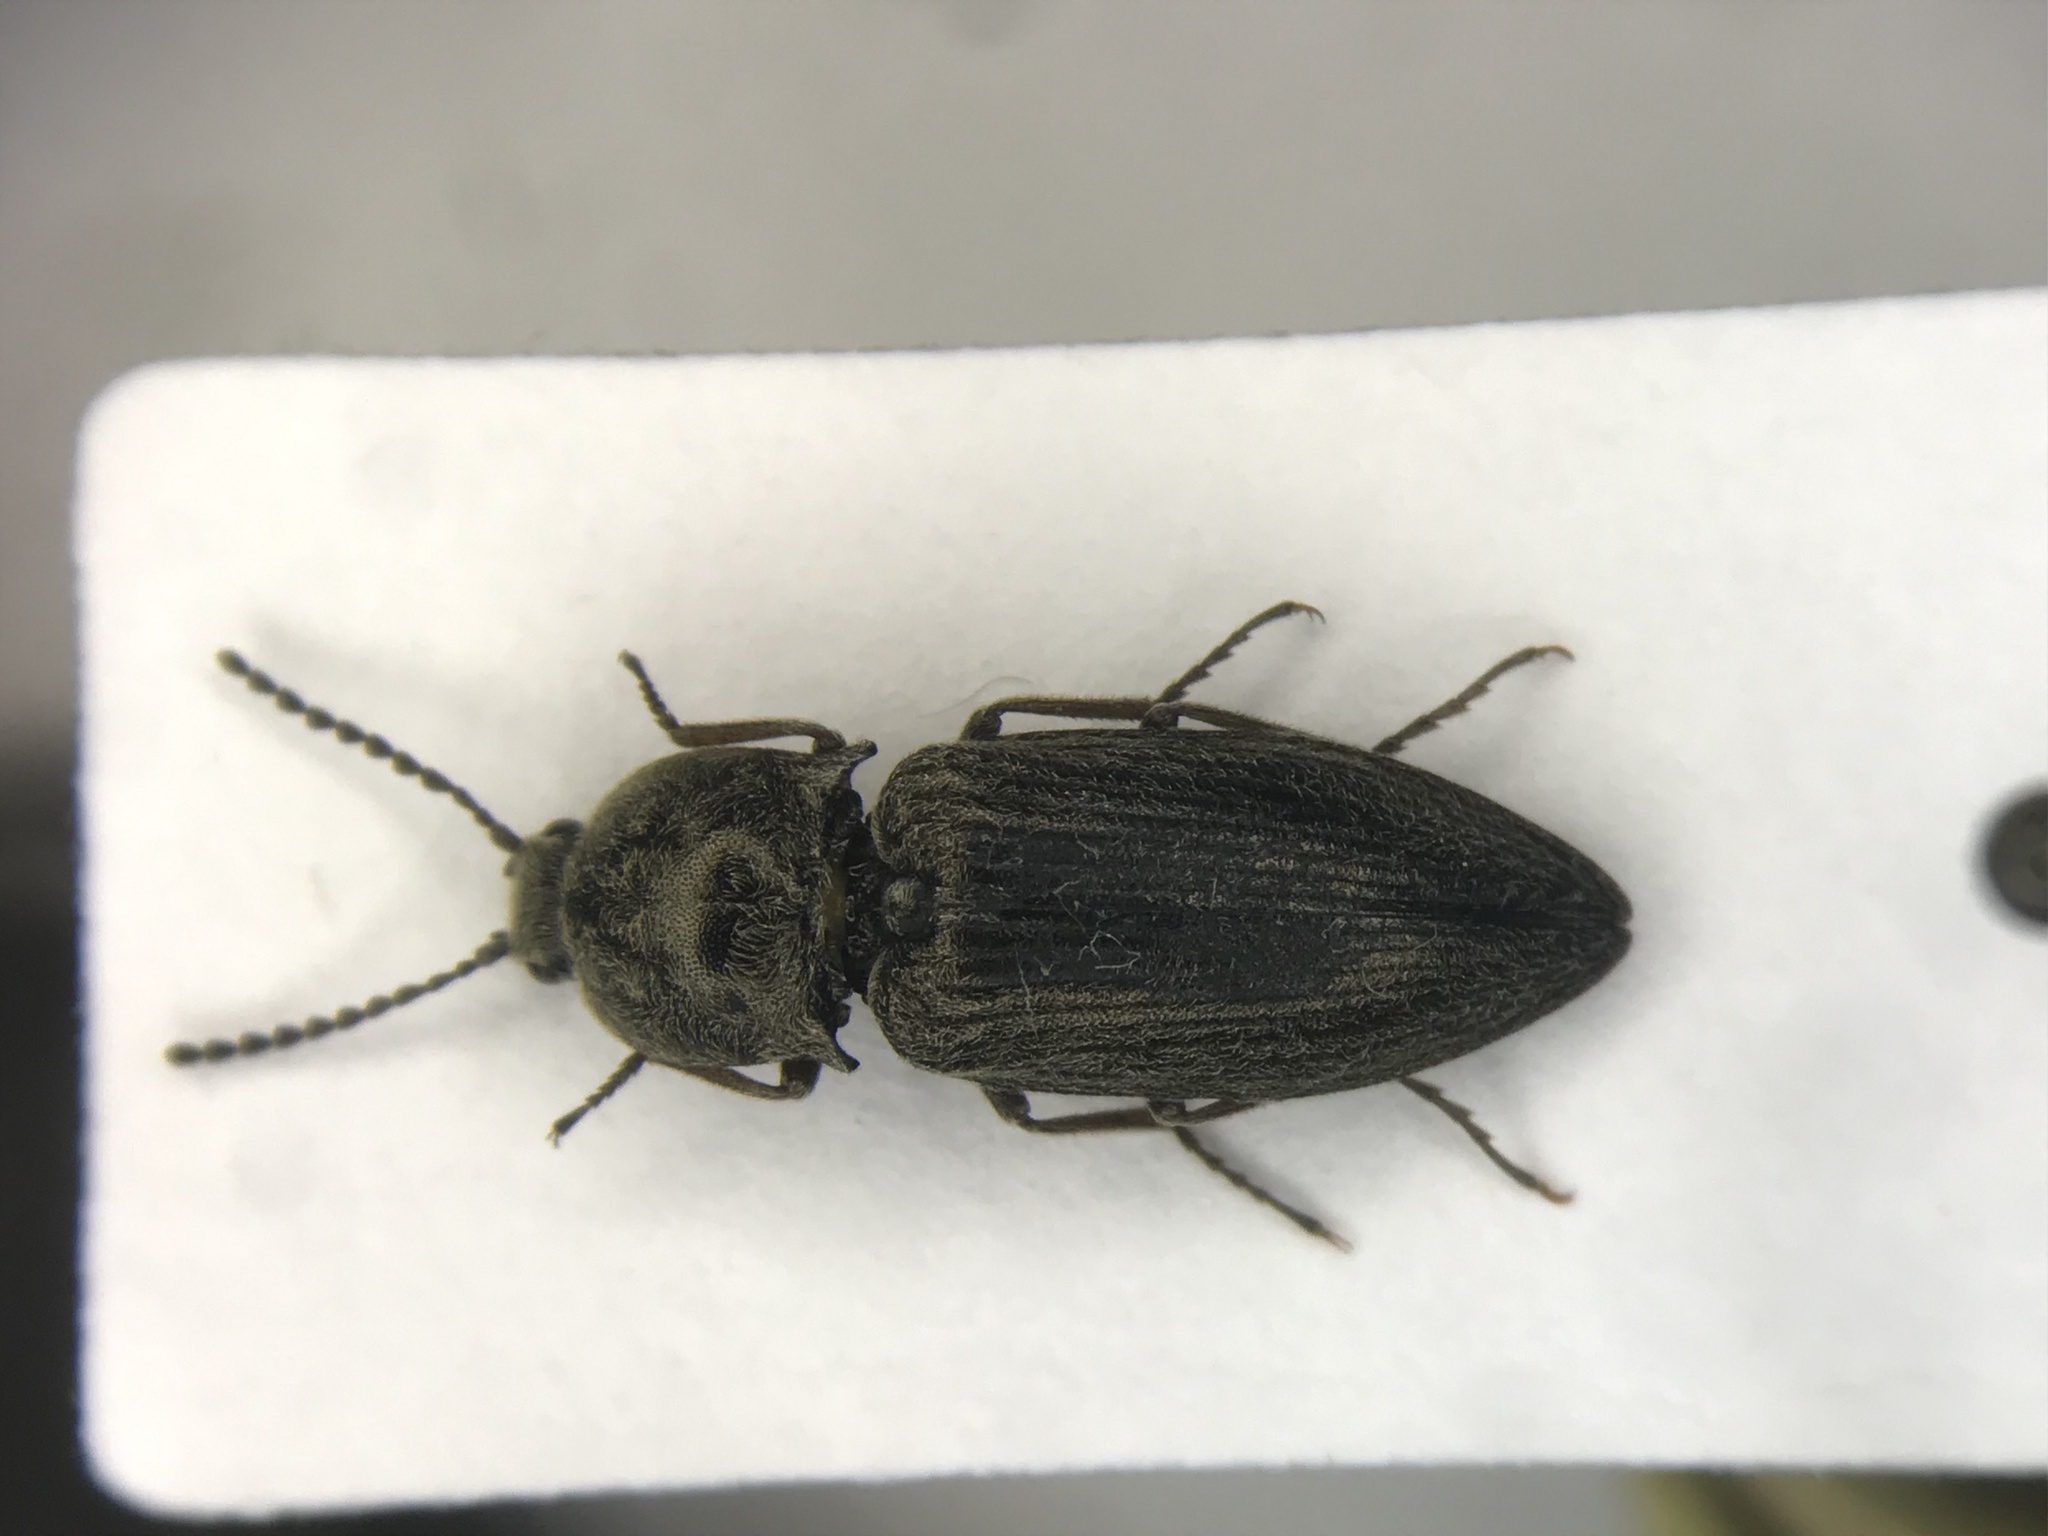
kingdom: Animalia
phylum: Arthropoda
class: Insecta
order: Coleoptera
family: Elateridae
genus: Hadromorphus
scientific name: Hadromorphus inflatus
